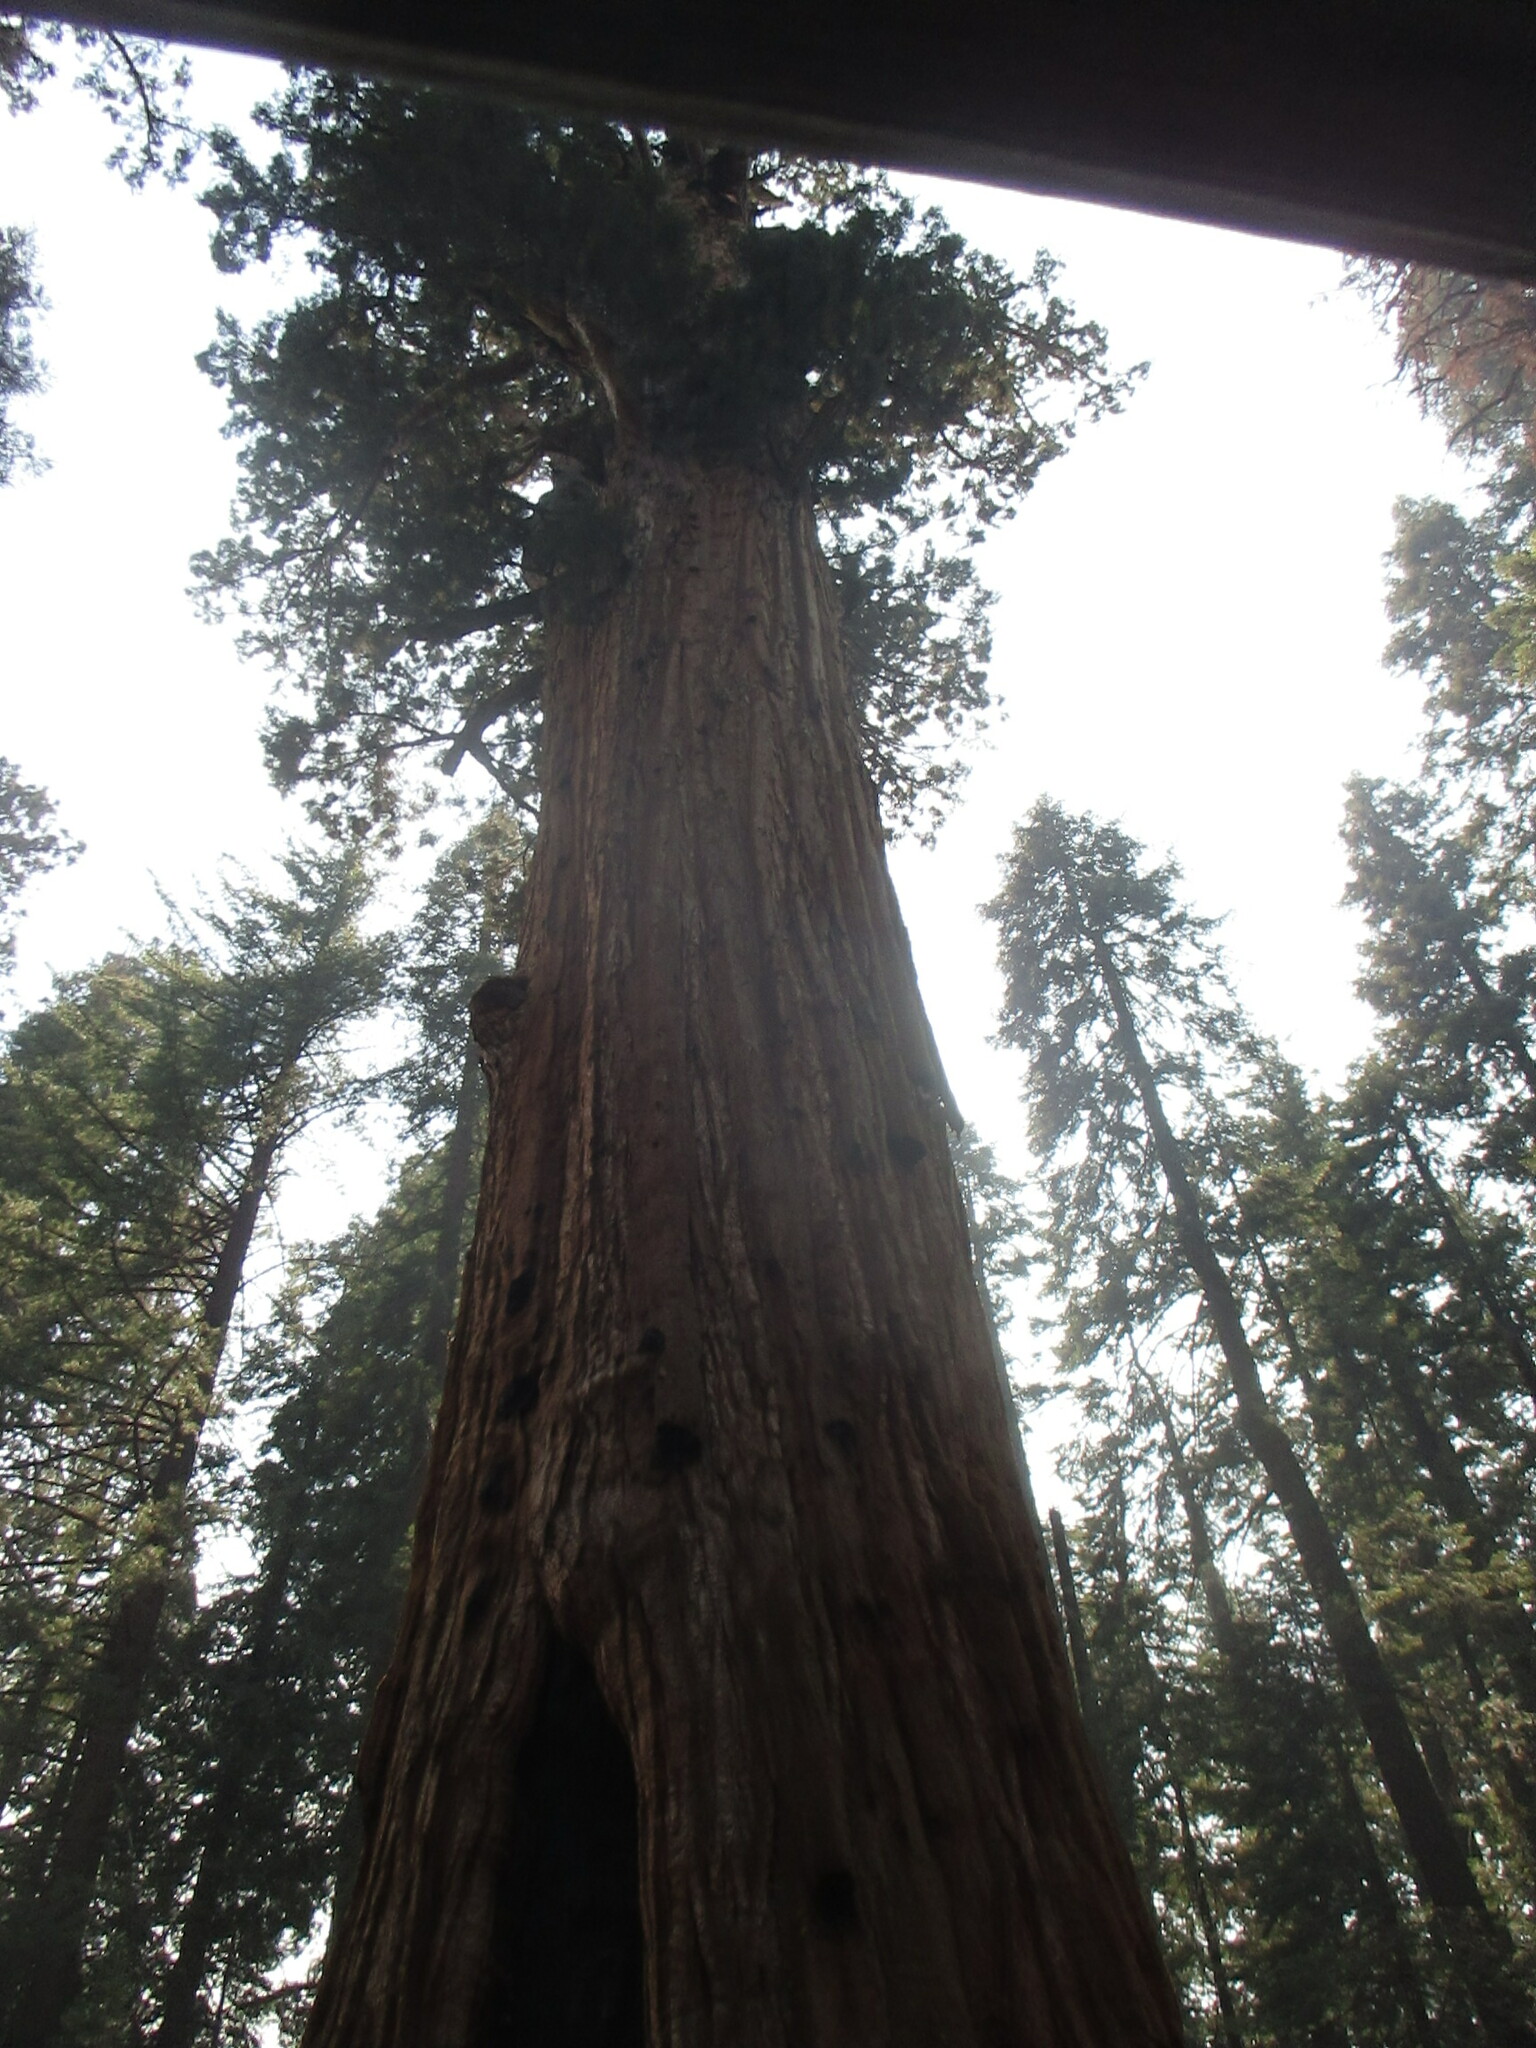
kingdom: Plantae
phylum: Tracheophyta
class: Pinopsida
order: Pinales
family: Cupressaceae
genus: Sequoiadendron
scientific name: Sequoiadendron giganteum
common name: Wellingtonia
